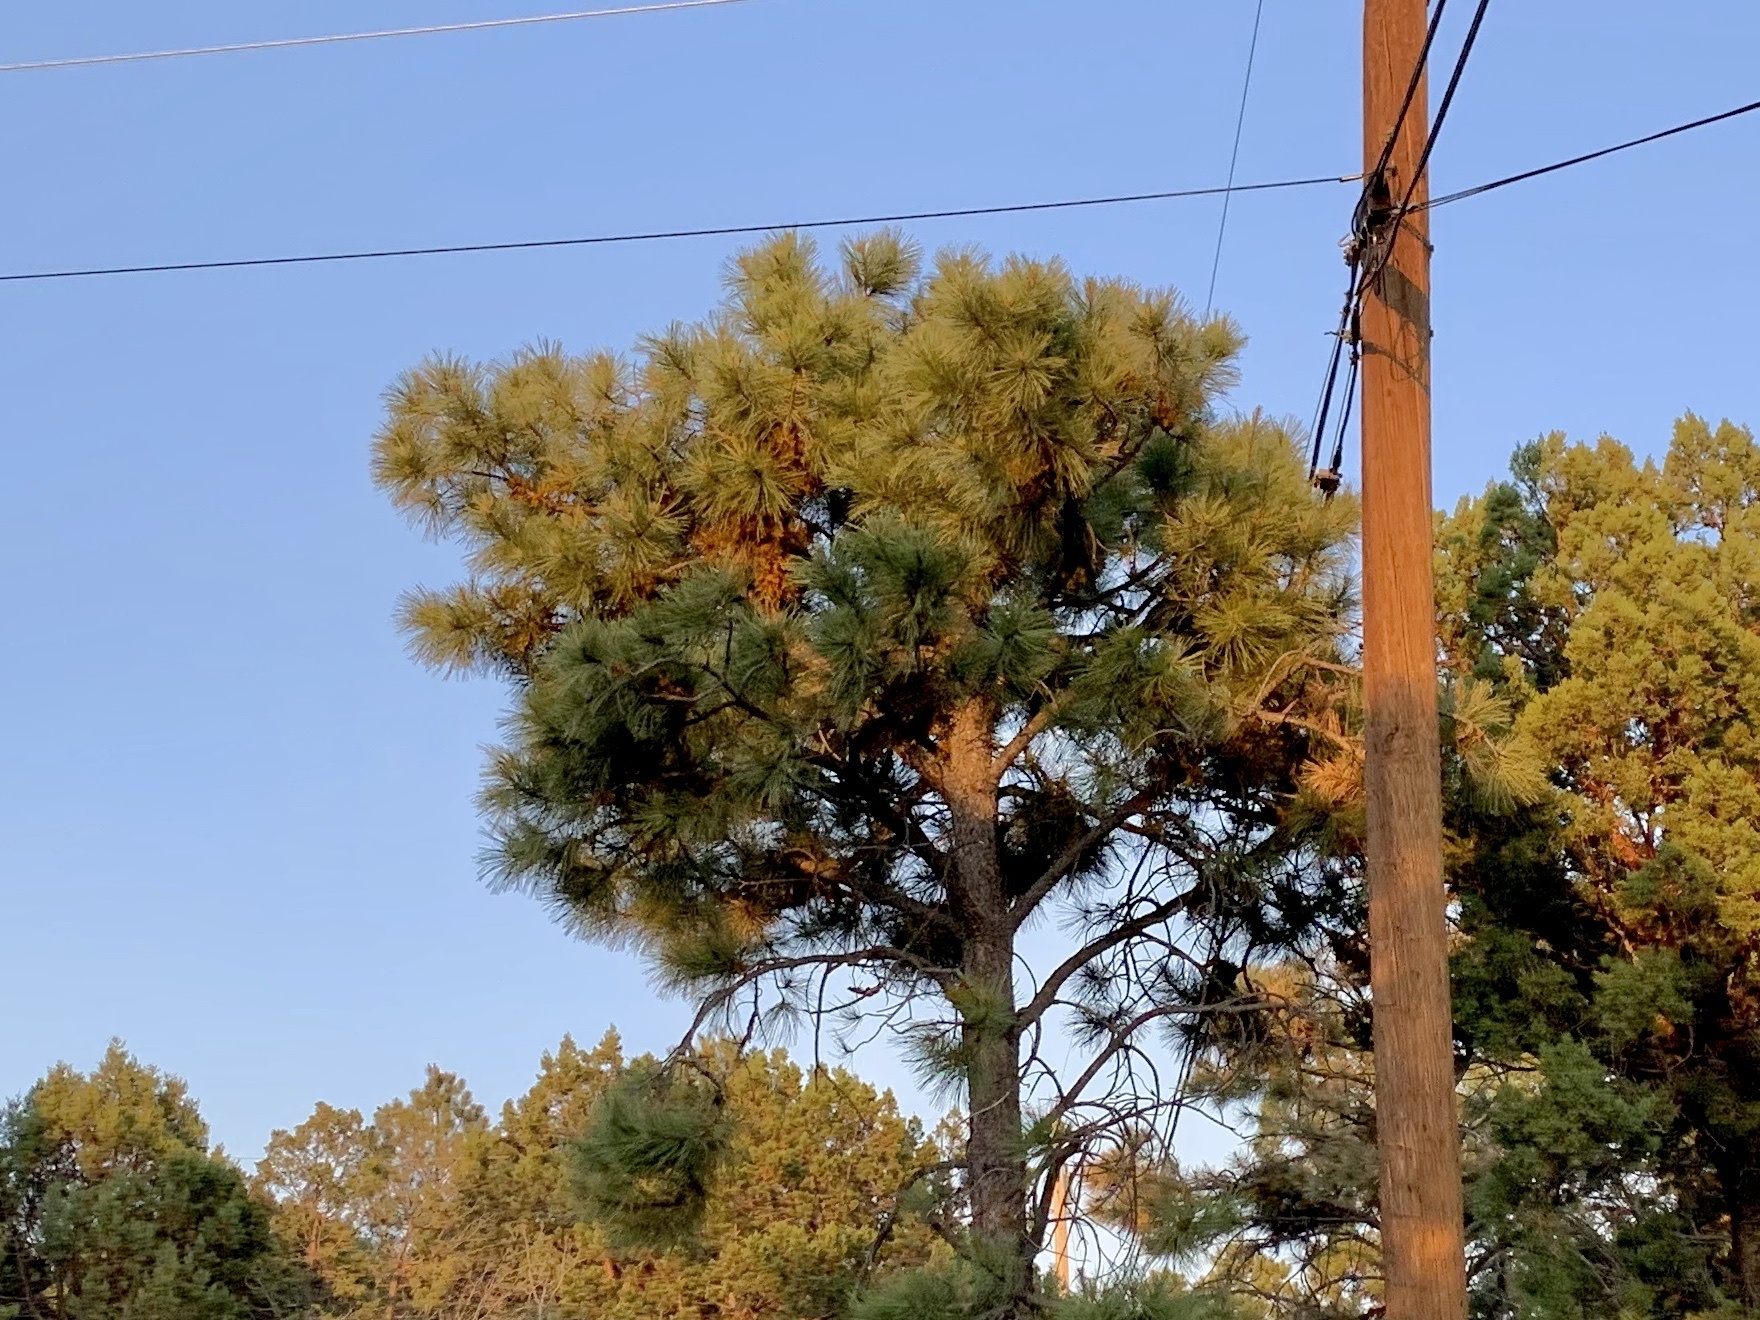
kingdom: Plantae
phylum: Tracheophyta
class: Pinopsida
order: Pinales
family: Pinaceae
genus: Pinus
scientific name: Pinus ponderosa
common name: Western yellow-pine
